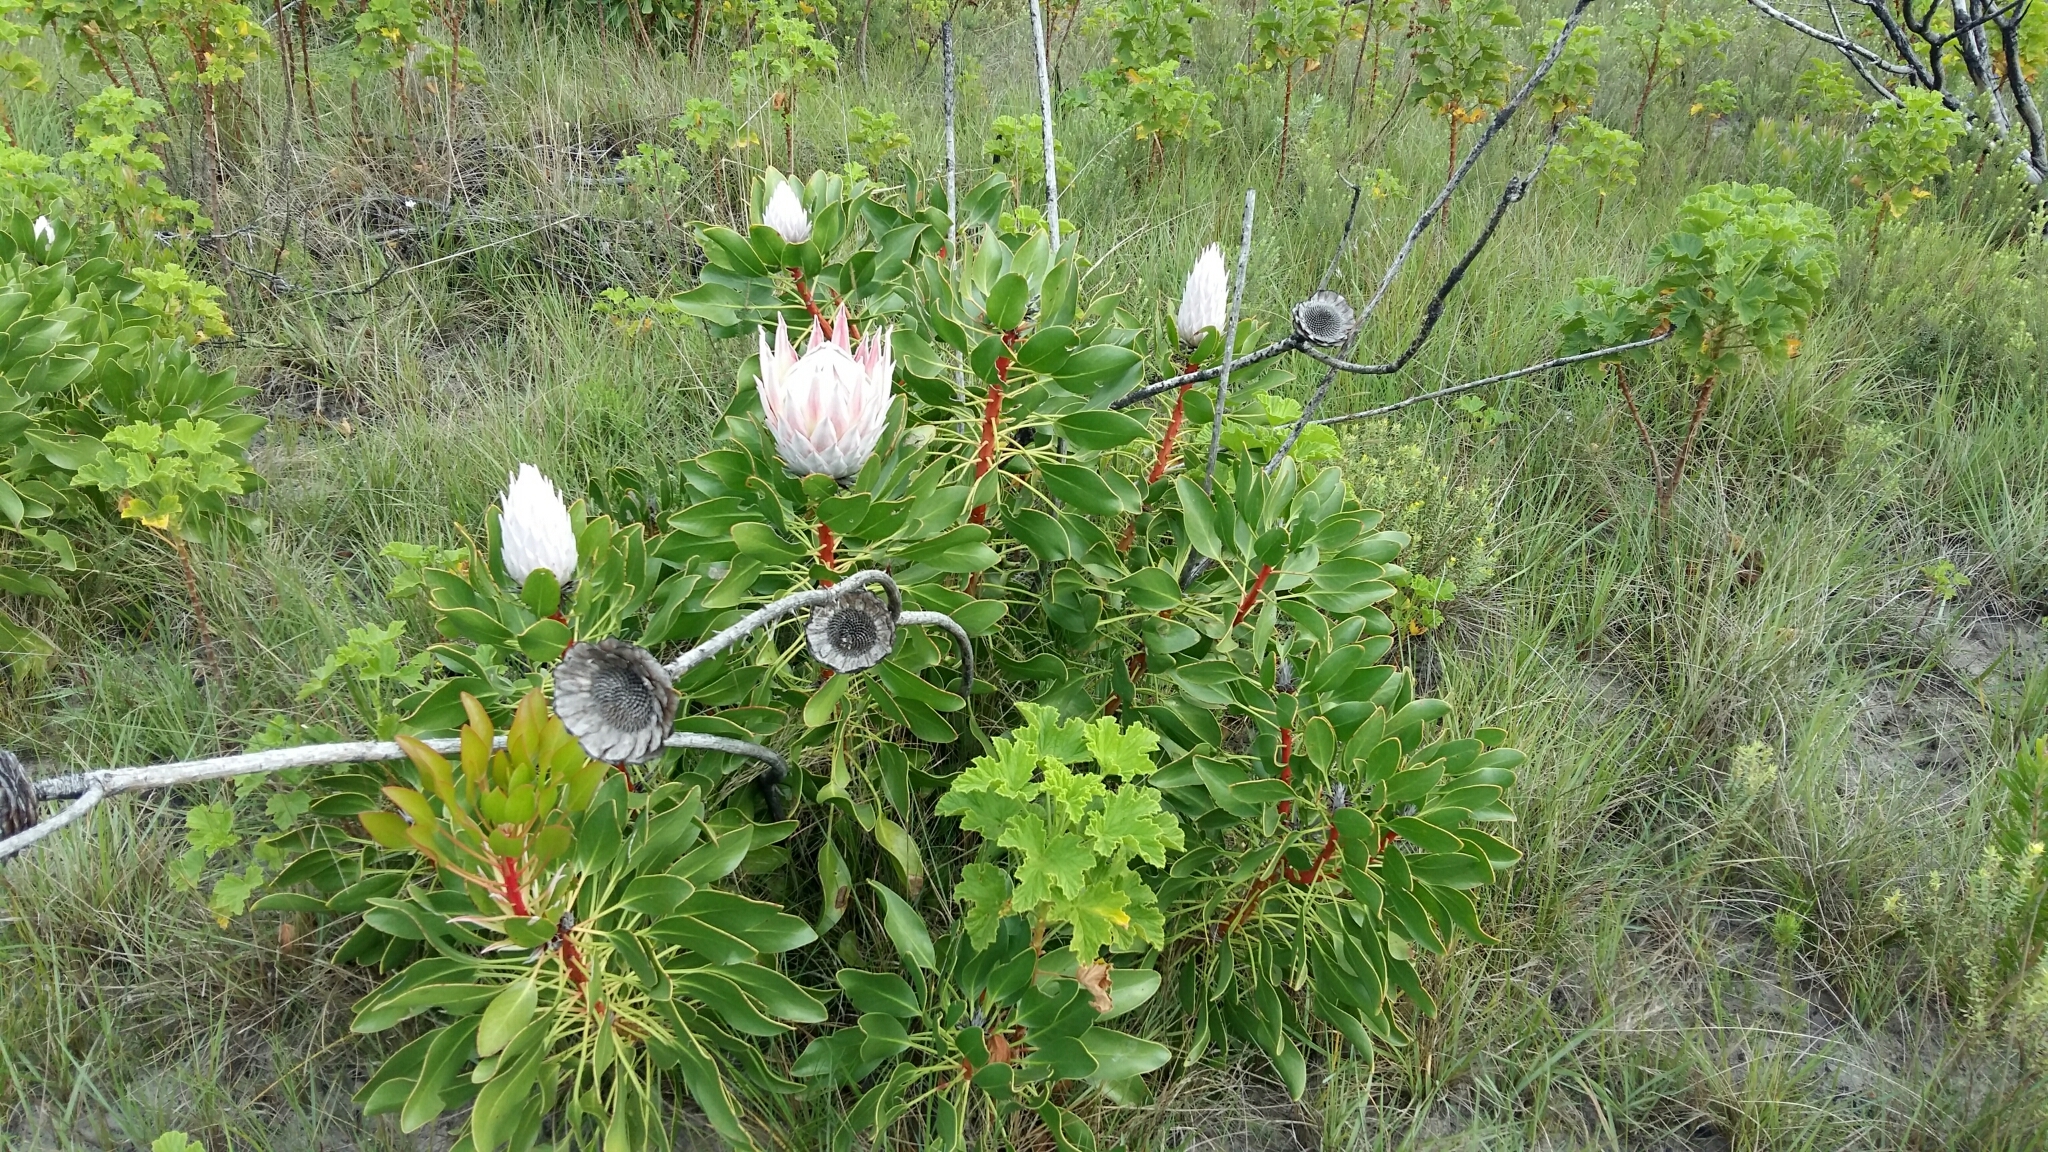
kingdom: Plantae
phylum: Tracheophyta
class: Magnoliopsida
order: Proteales
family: Proteaceae
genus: Protea
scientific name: Protea cynaroides
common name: King protea
